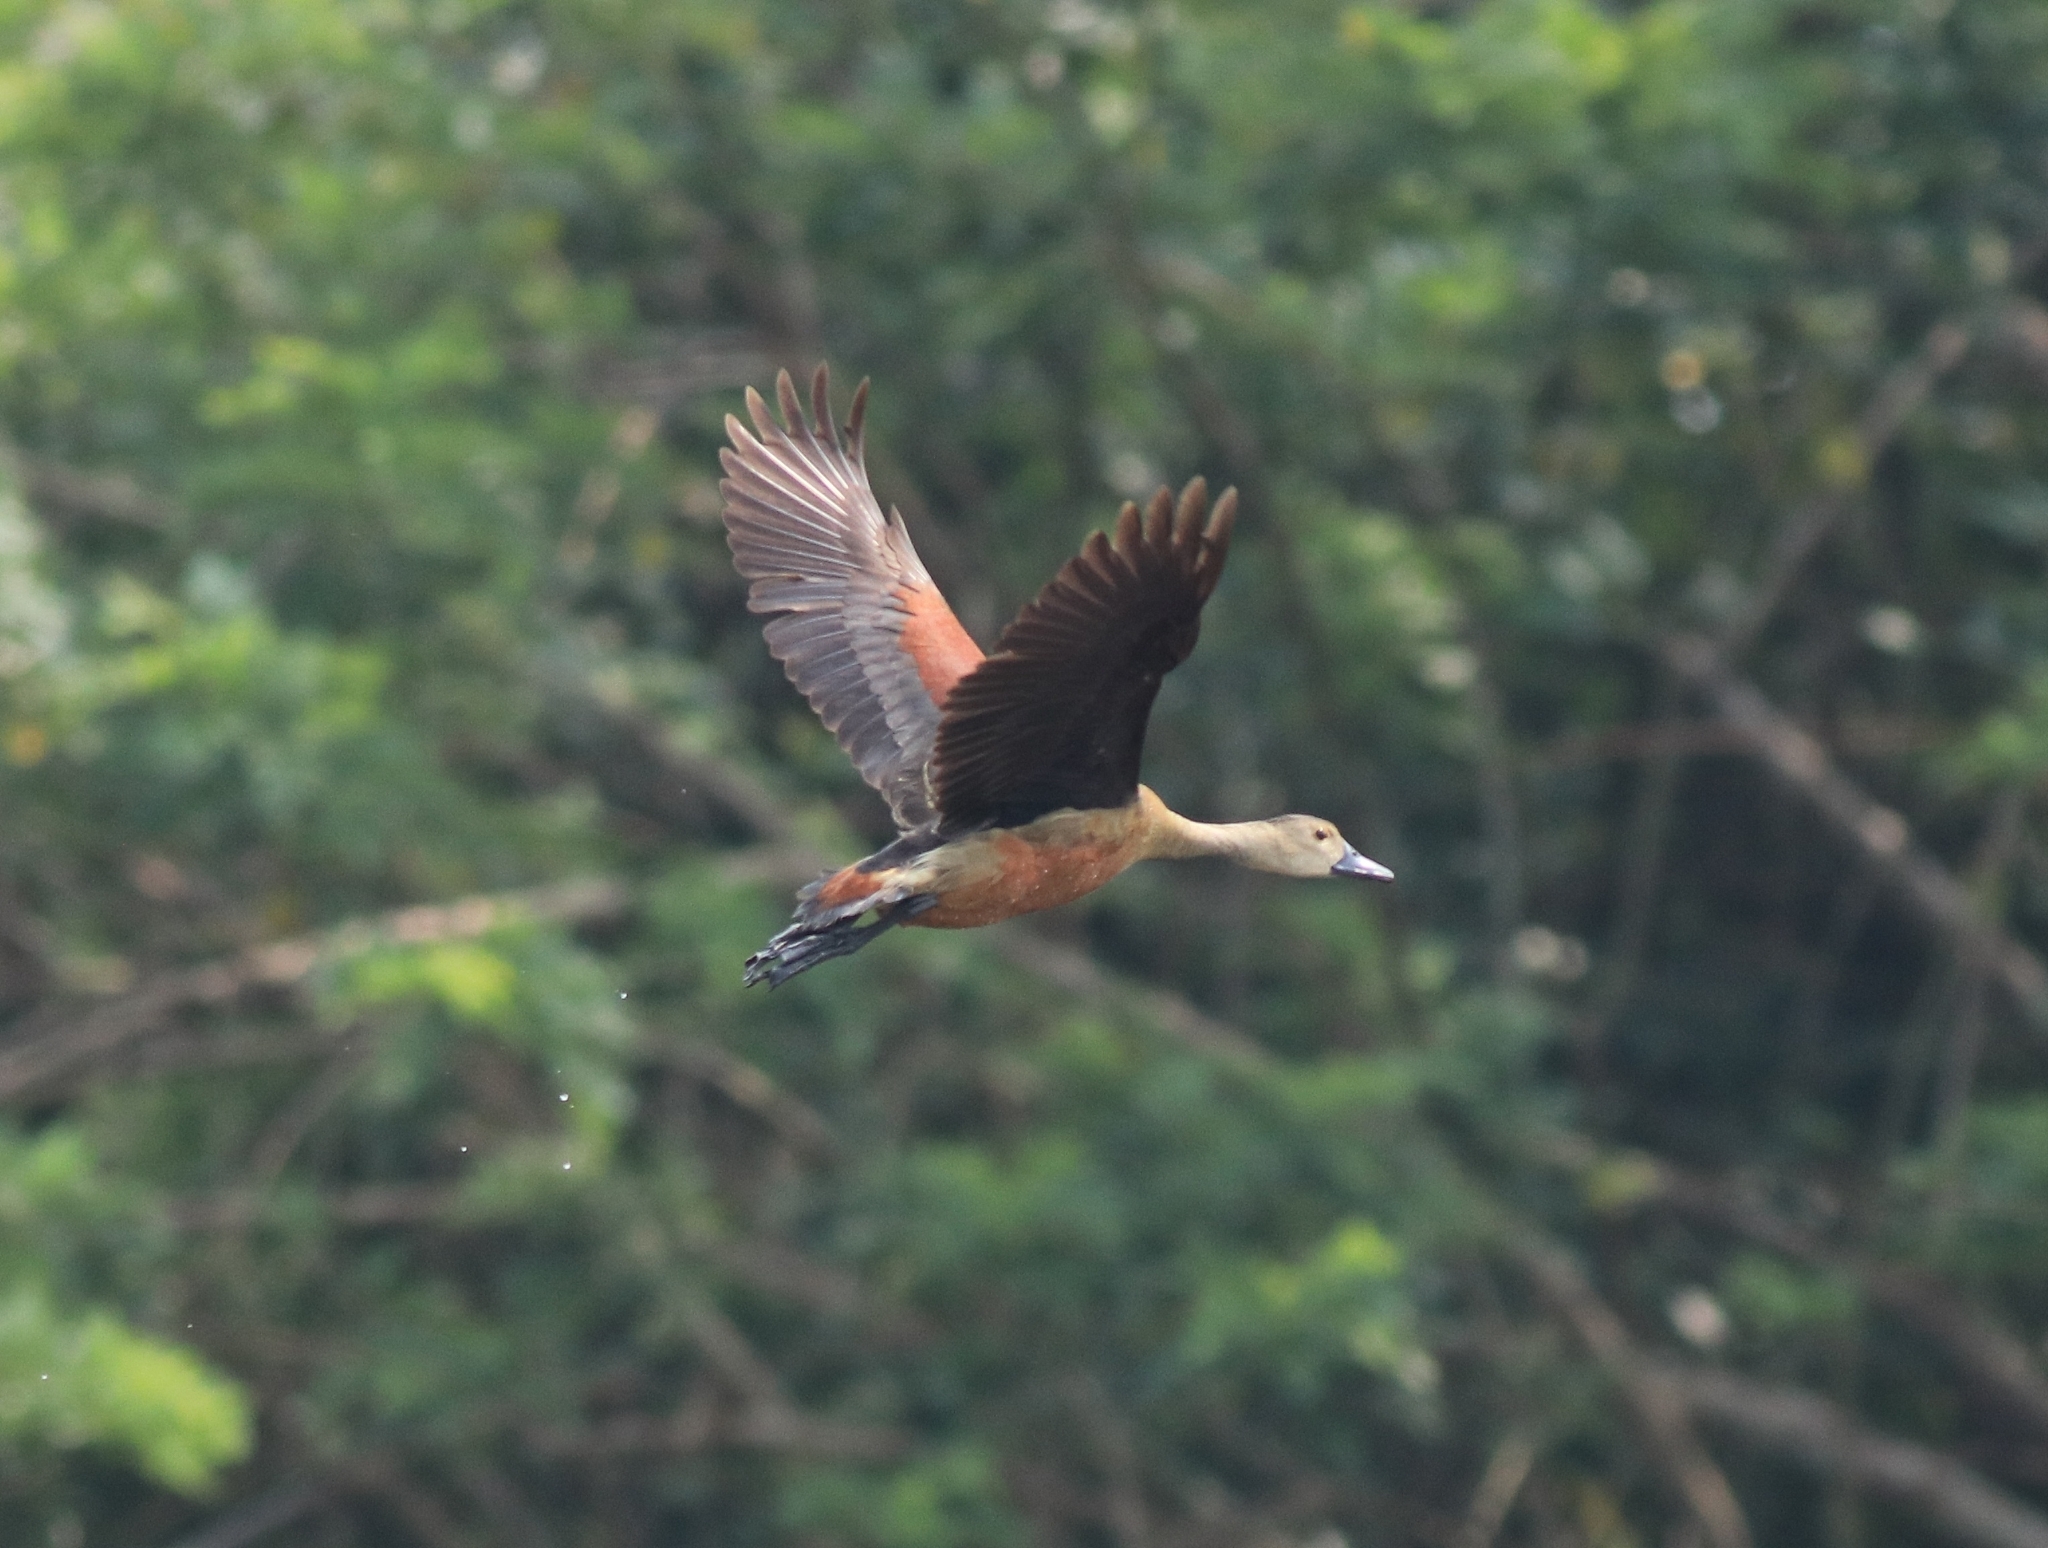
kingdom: Animalia
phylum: Chordata
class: Aves
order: Anseriformes
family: Anatidae
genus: Dendrocygna
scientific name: Dendrocygna javanica
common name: Lesser whistling-duck
